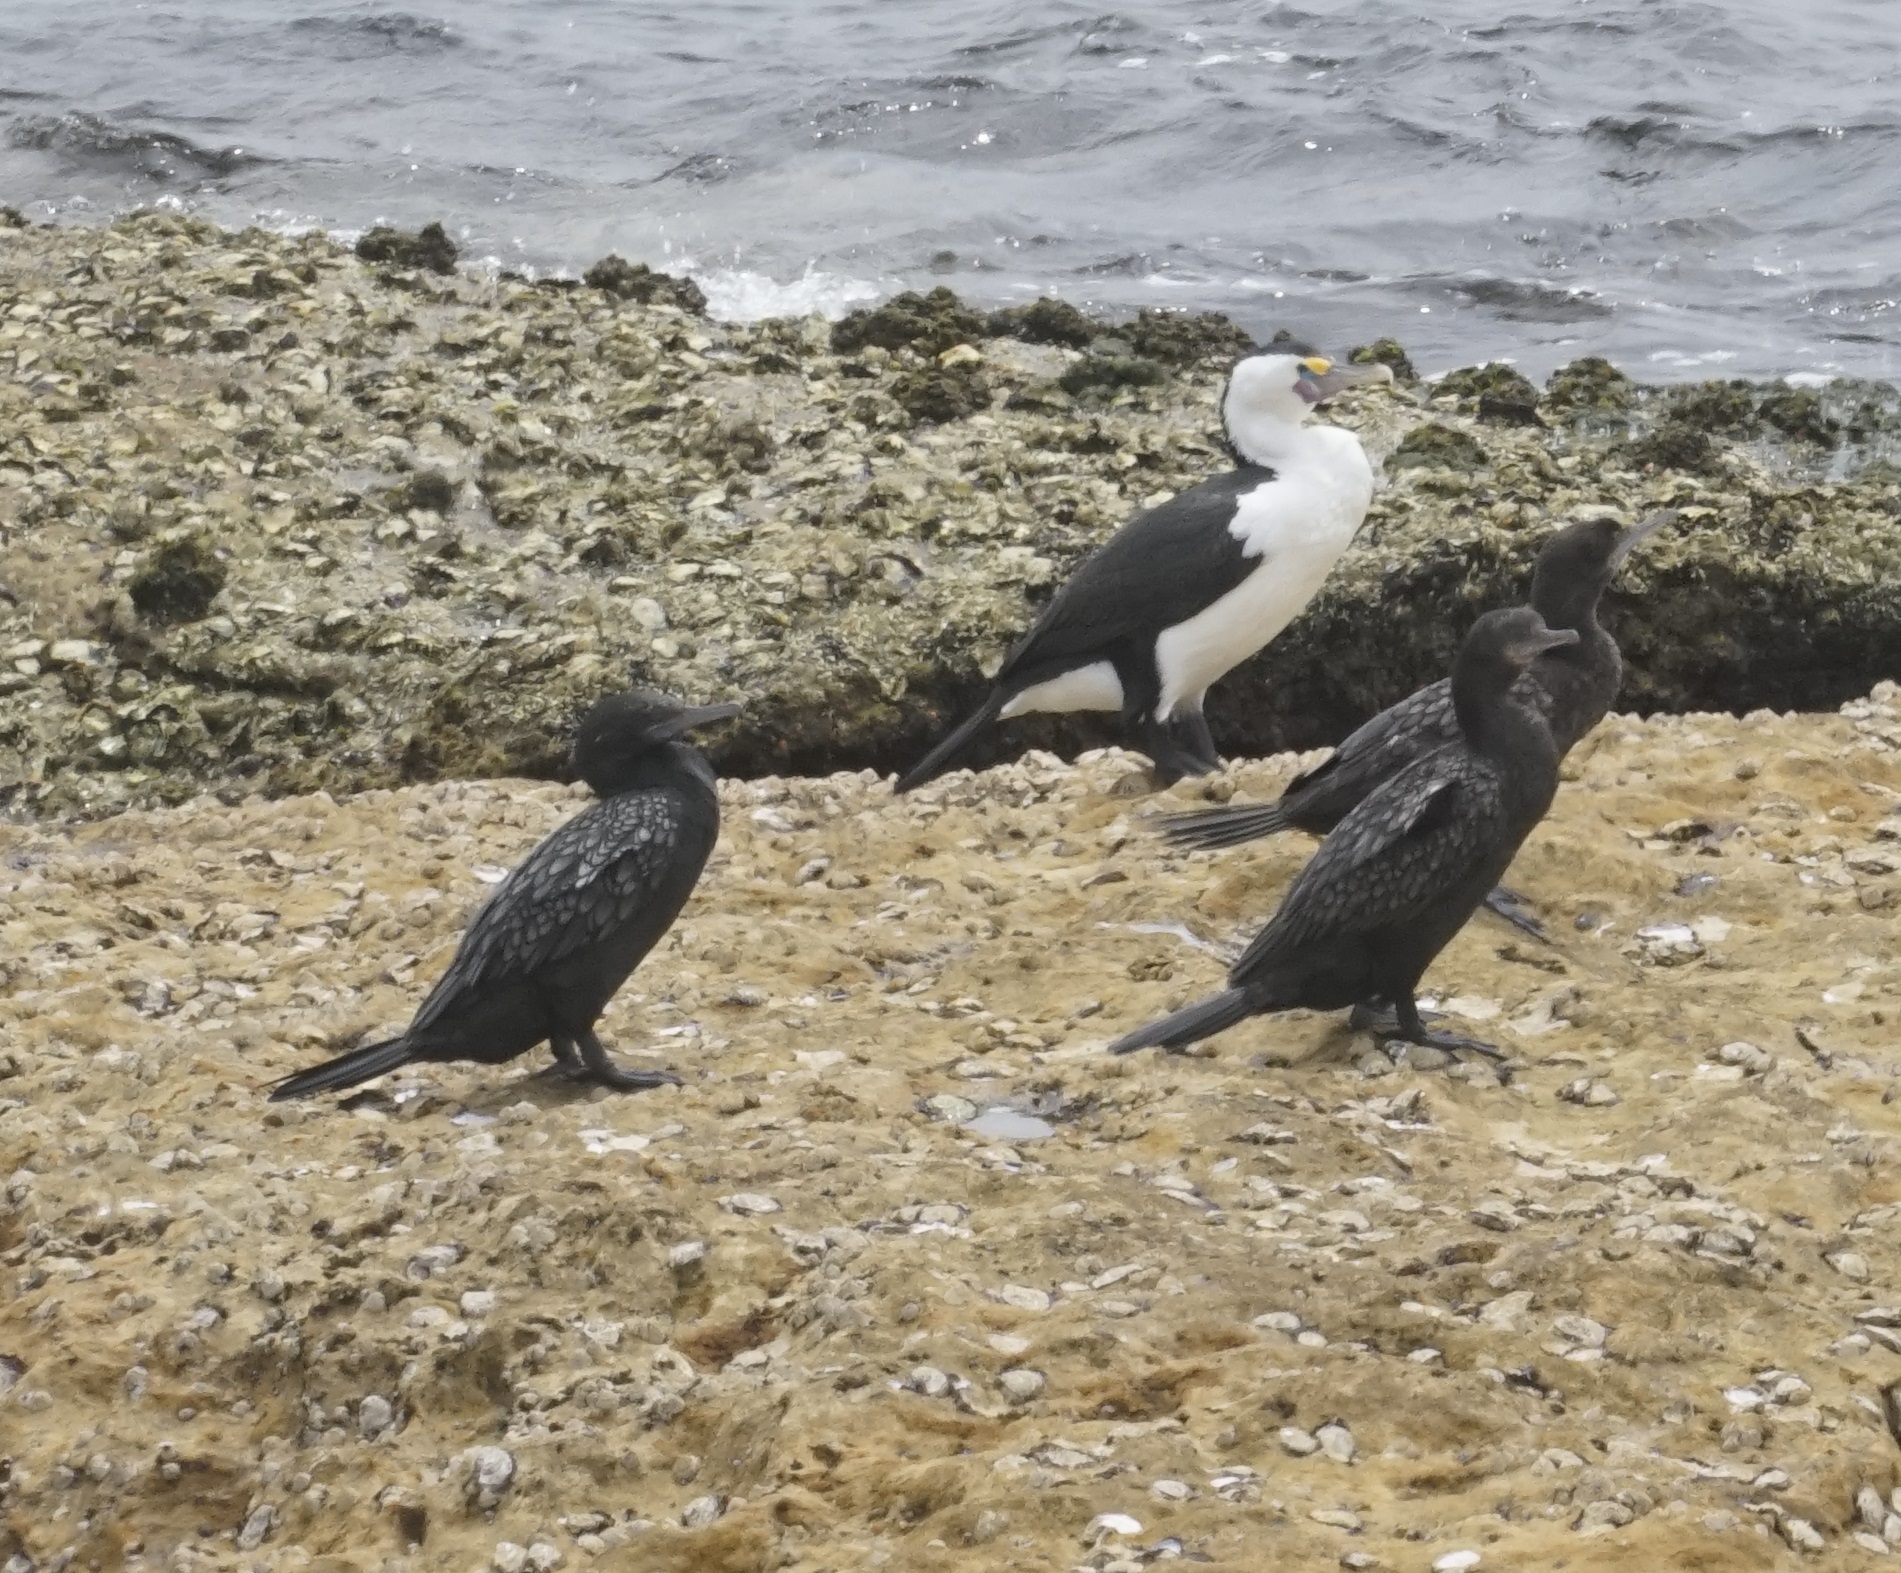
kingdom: Animalia
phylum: Chordata
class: Aves
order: Suliformes
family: Phalacrocoracidae
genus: Phalacrocorax
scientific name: Phalacrocorax sulcirostris
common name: Little black cormorant
